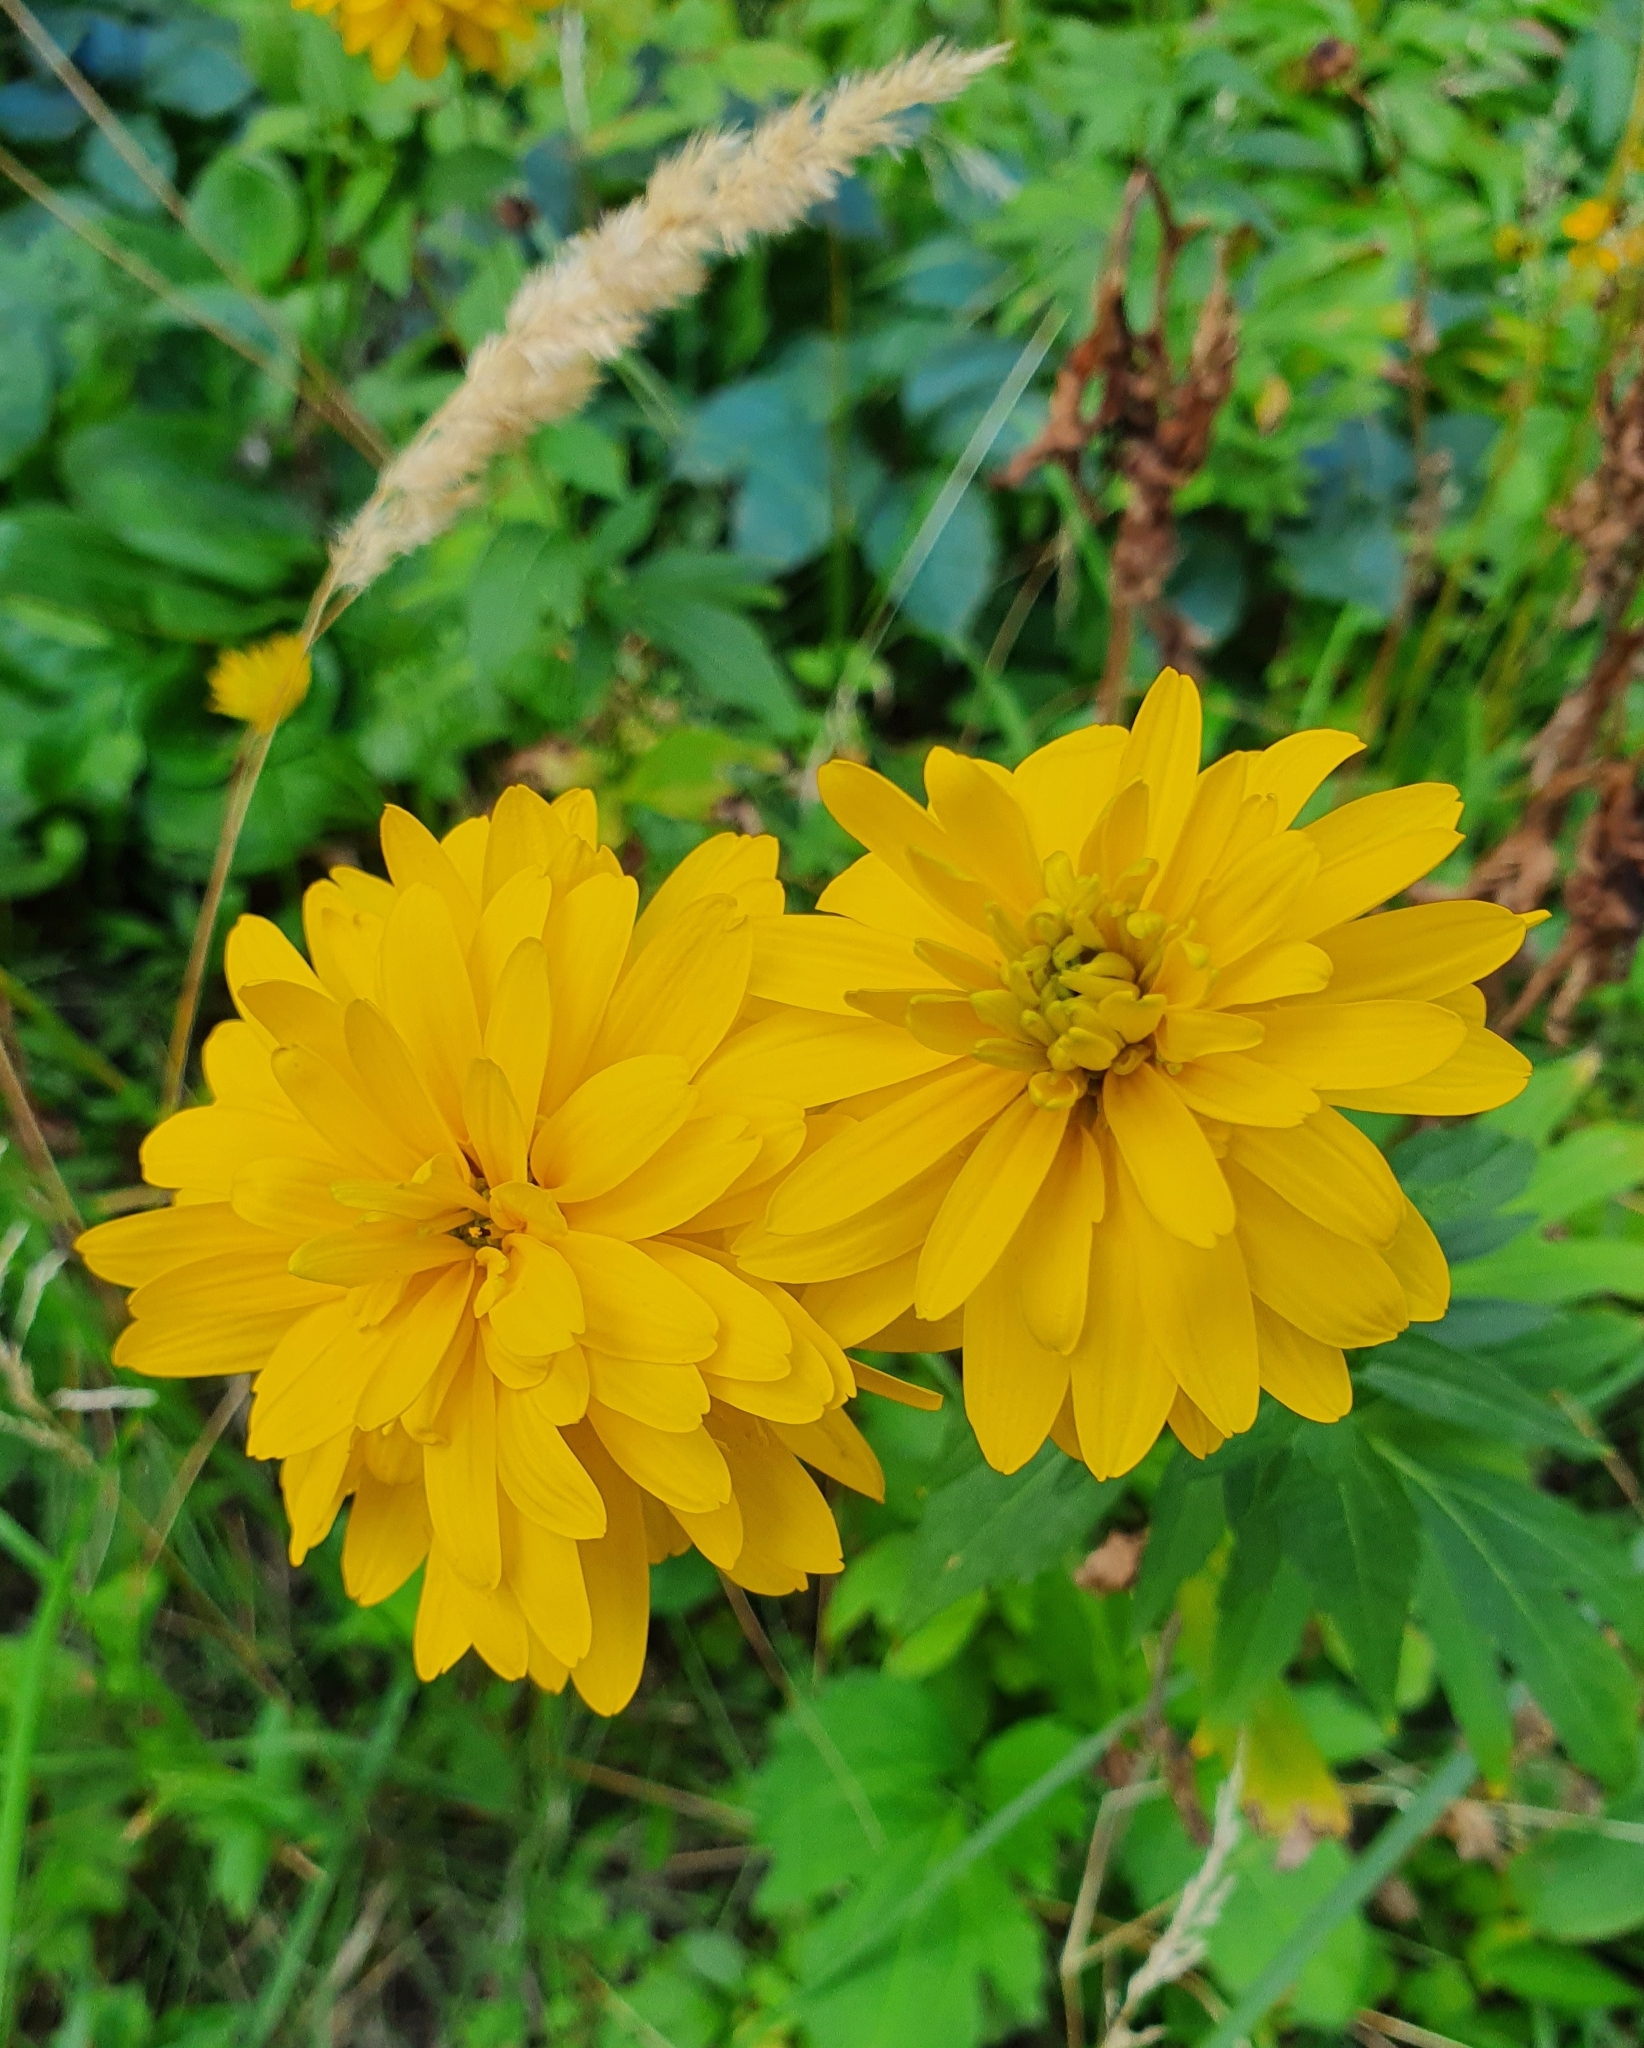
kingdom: Plantae
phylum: Tracheophyta
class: Magnoliopsida
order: Asterales
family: Asteraceae
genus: Rudbeckia
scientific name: Rudbeckia laciniata
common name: Coneflower
